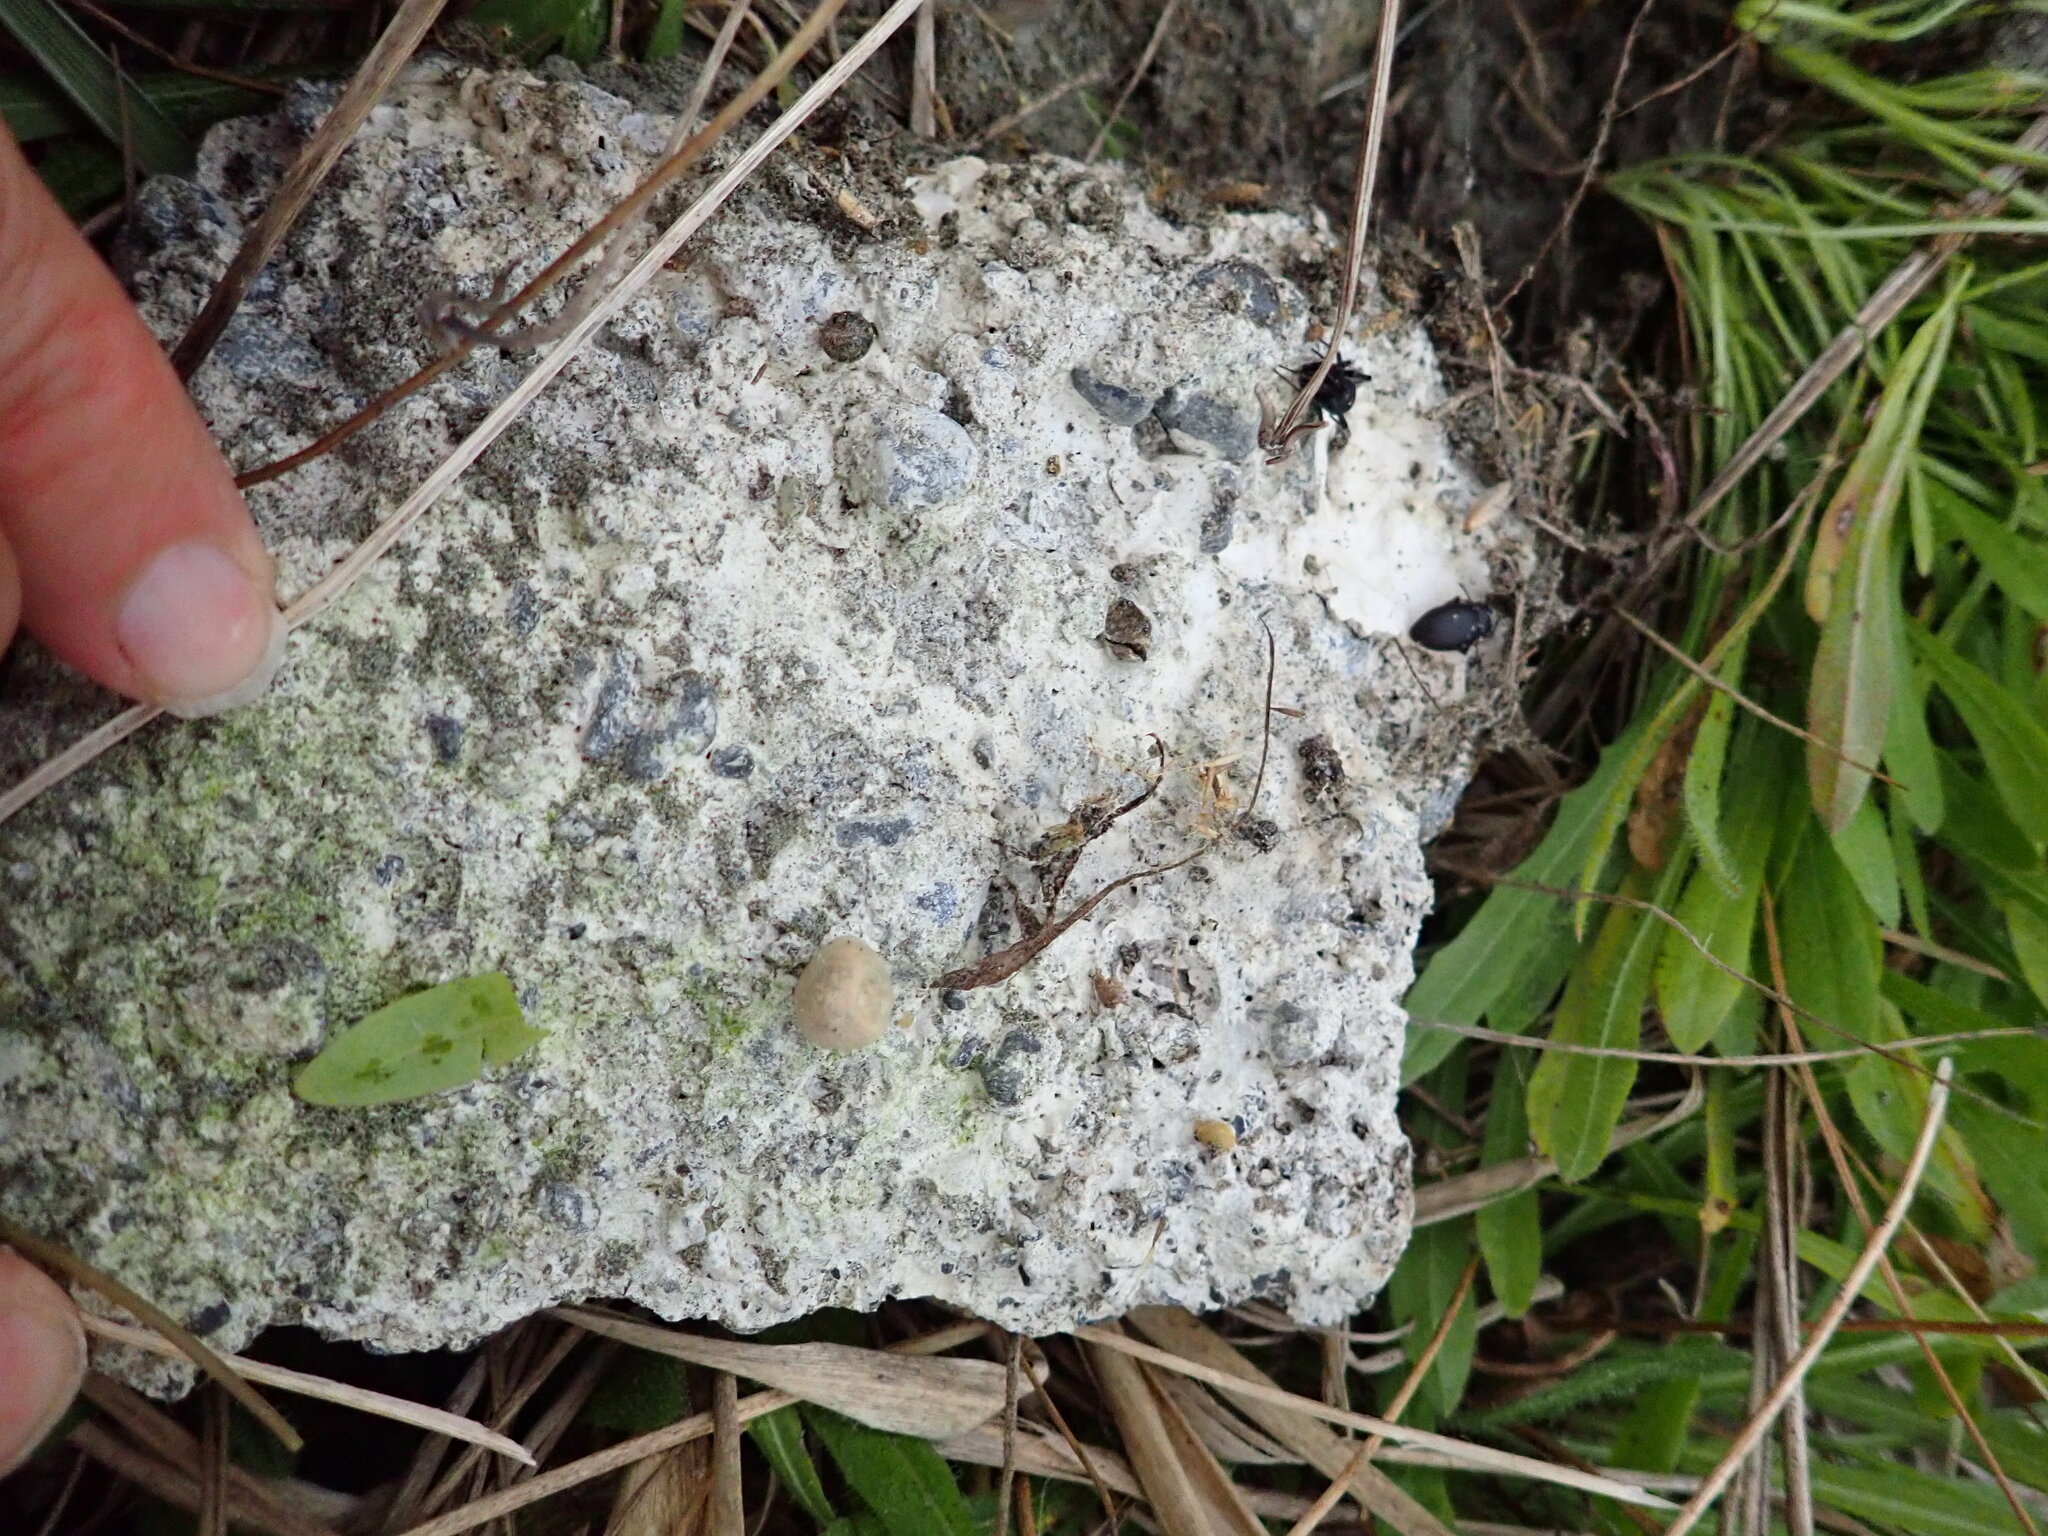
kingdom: Animalia
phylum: Arthropoda
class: Arachnida
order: Araneae
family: Theridiidae
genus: Latrodectus
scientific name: Latrodectus katipo
